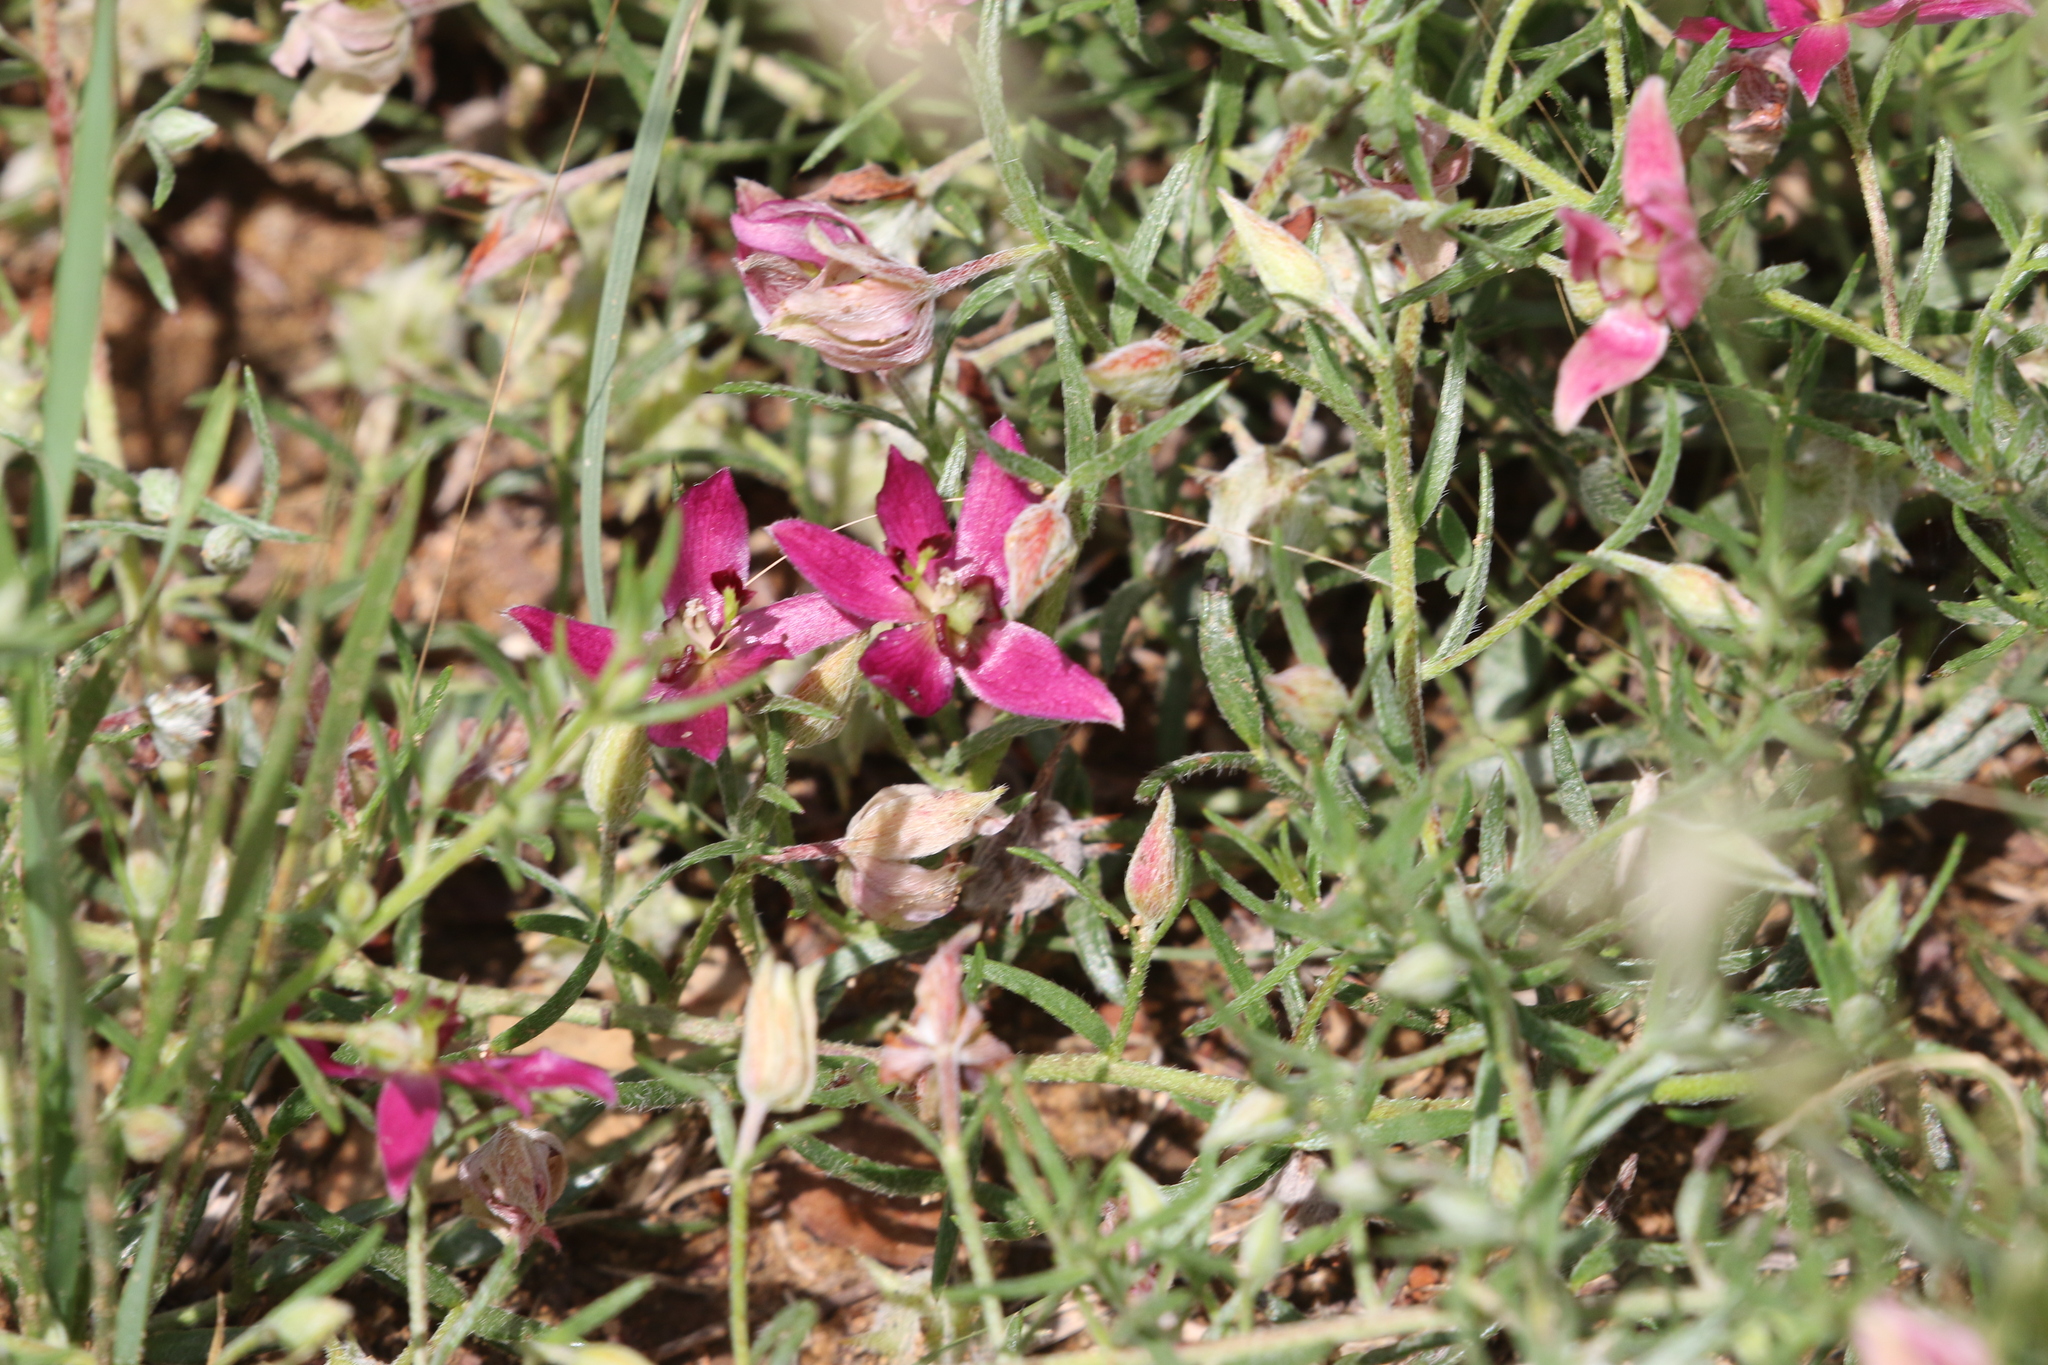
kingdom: Plantae
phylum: Tracheophyta
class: Magnoliopsida
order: Zygophyllales
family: Krameriaceae
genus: Krameria
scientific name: Krameria lanceolata
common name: Ratany
